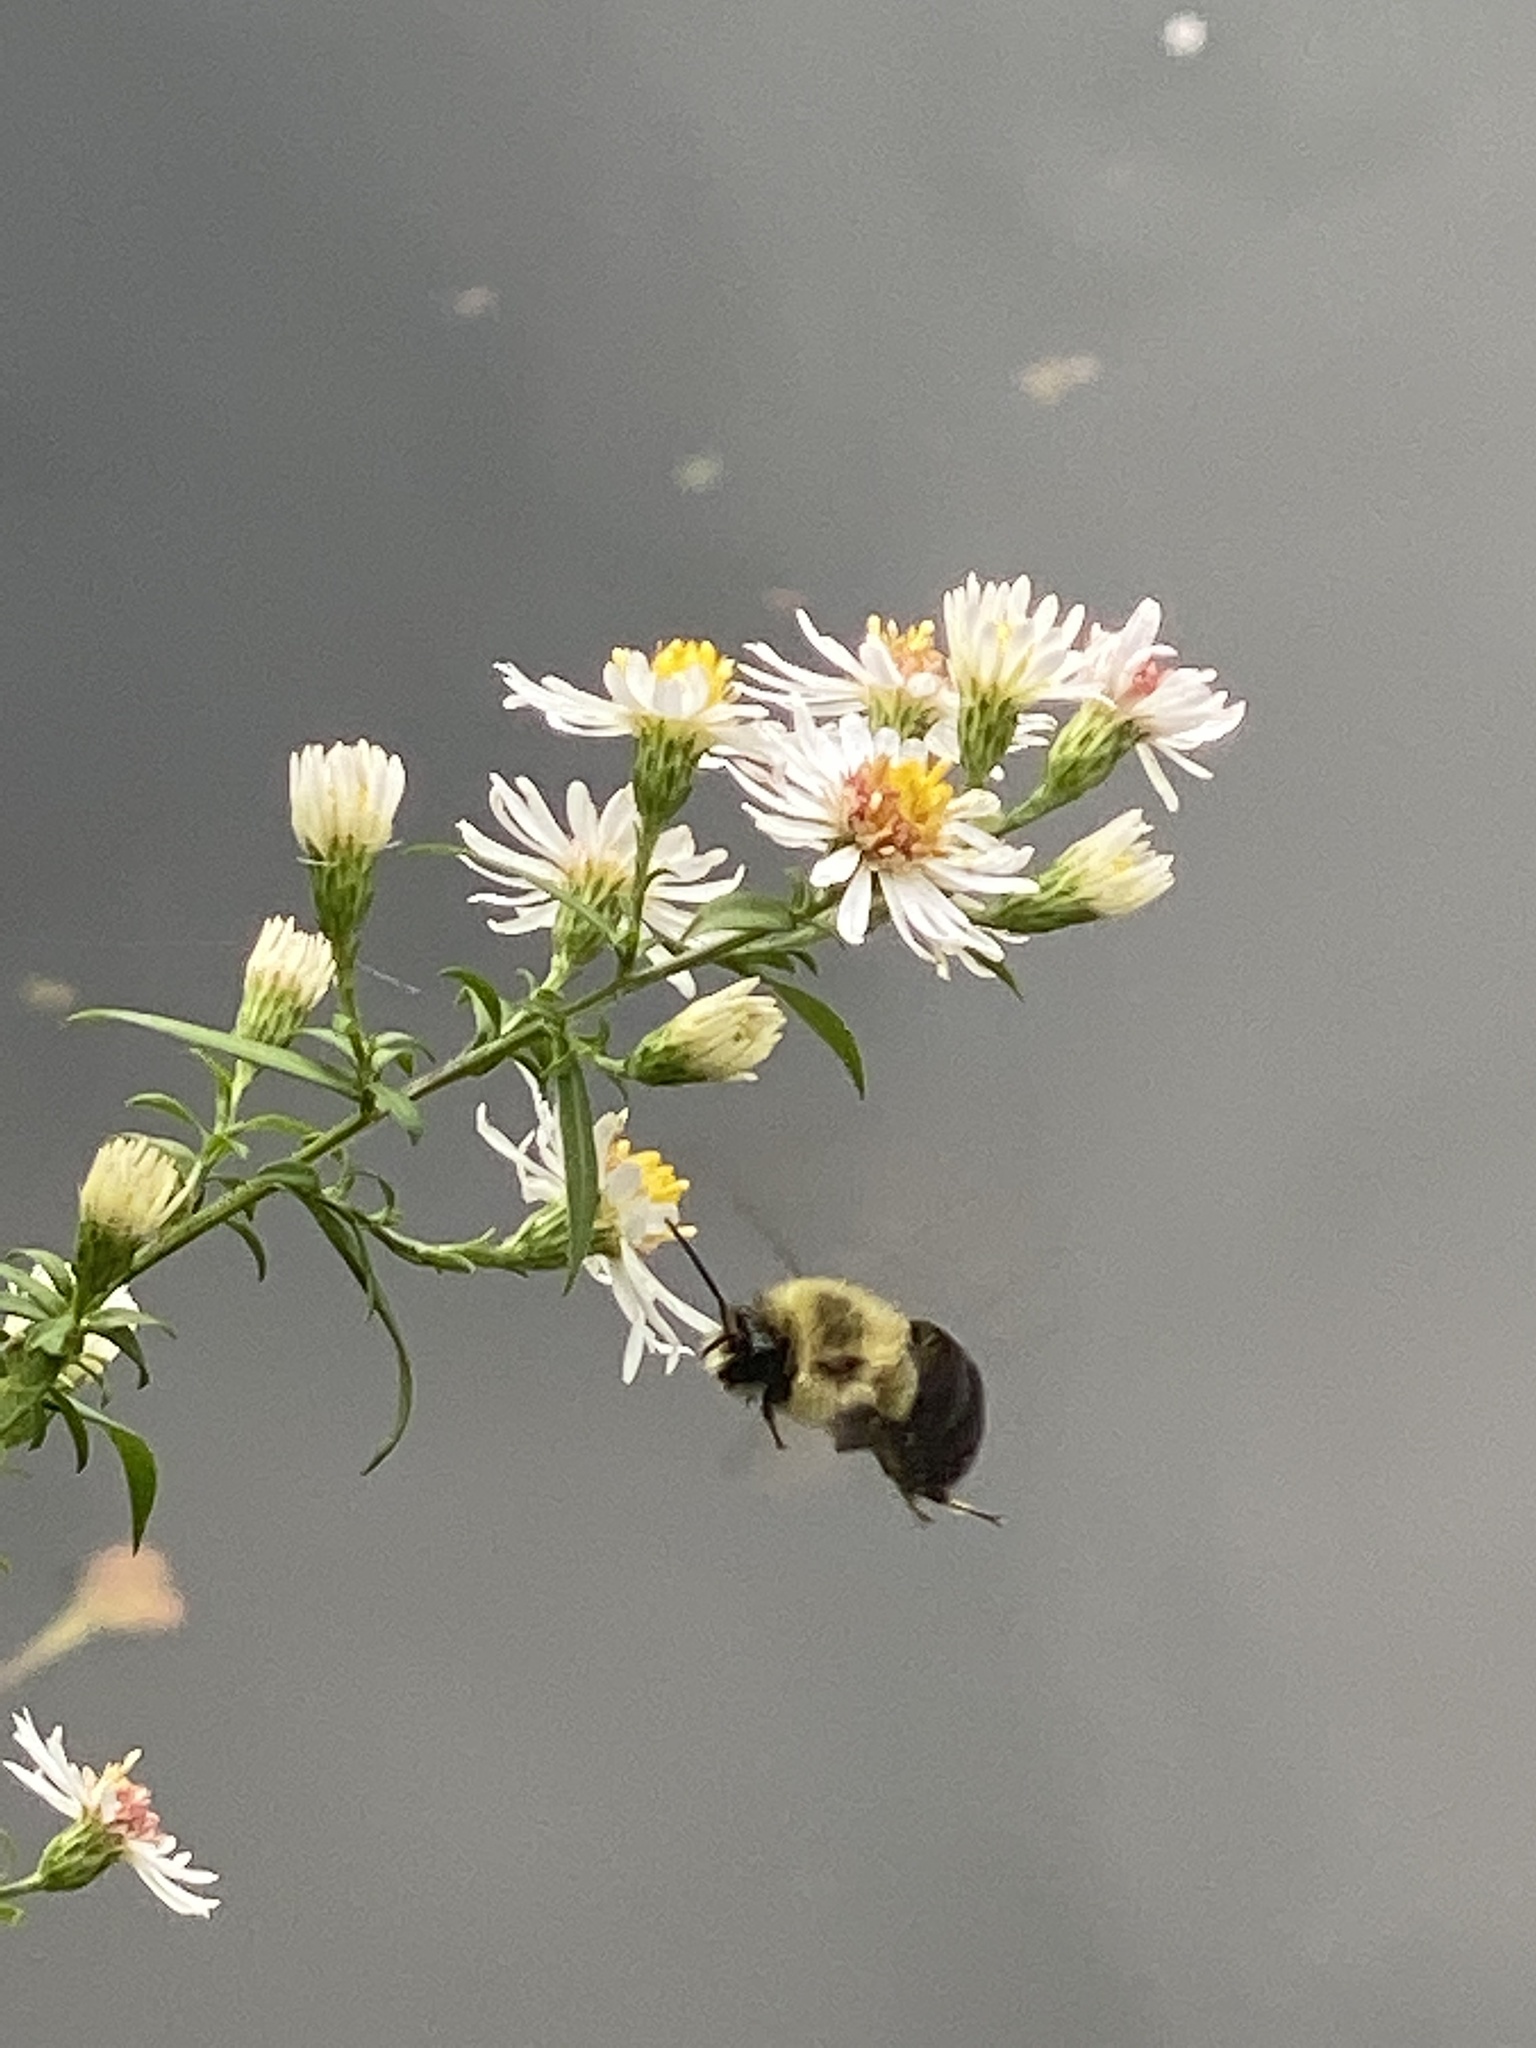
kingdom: Animalia
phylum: Arthropoda
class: Insecta
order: Hymenoptera
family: Apidae
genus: Bombus
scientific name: Bombus impatiens
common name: Common eastern bumble bee
